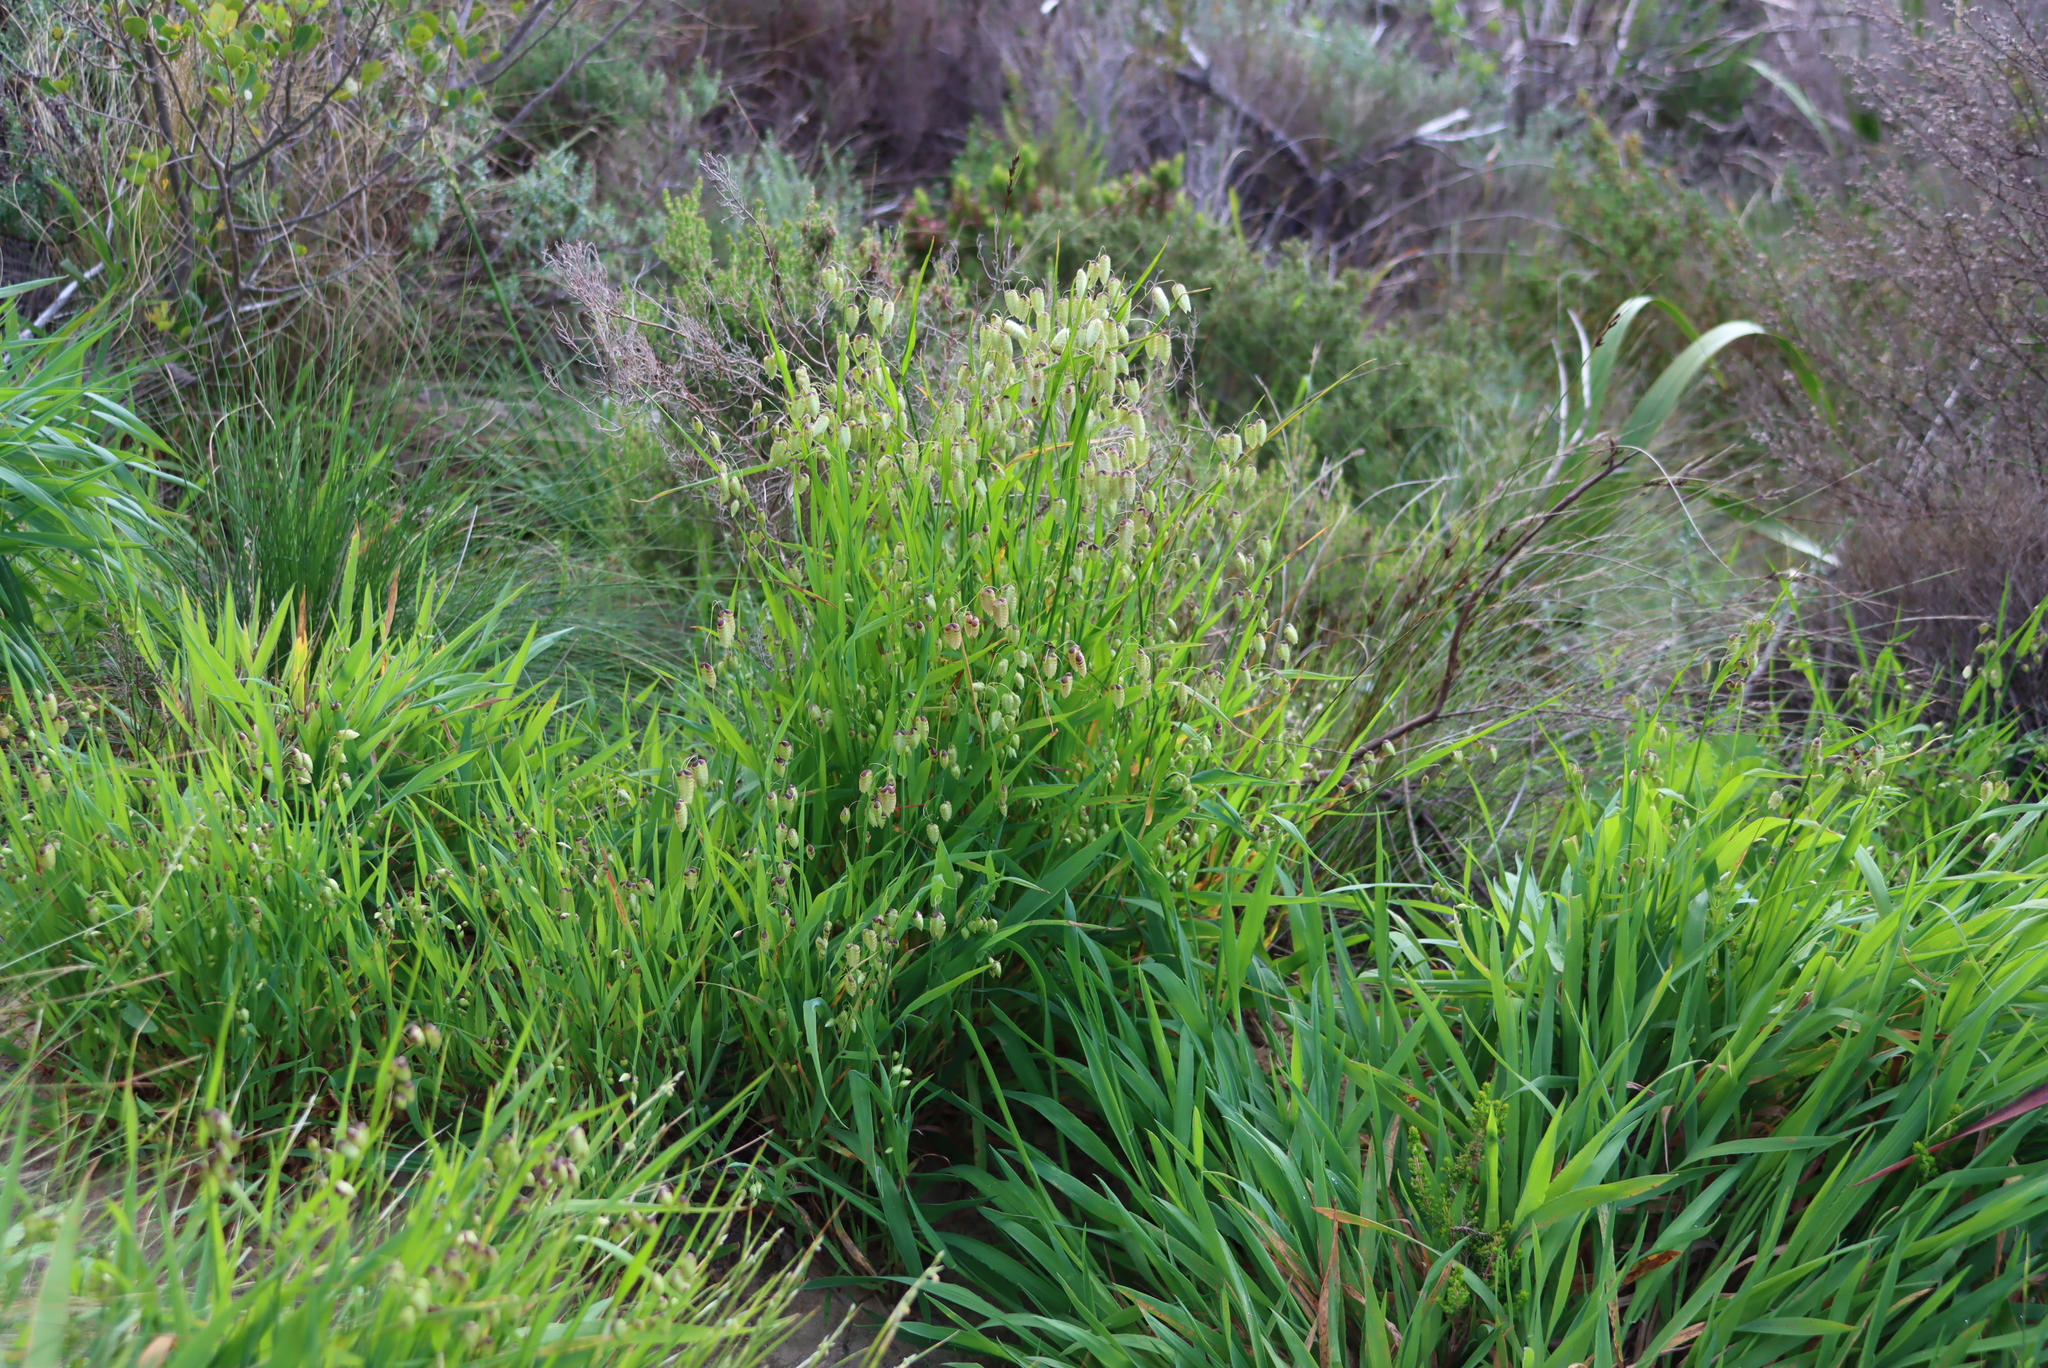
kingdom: Plantae
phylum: Tracheophyta
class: Liliopsida
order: Poales
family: Poaceae
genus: Briza
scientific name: Briza maxima
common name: Big quakinggrass
